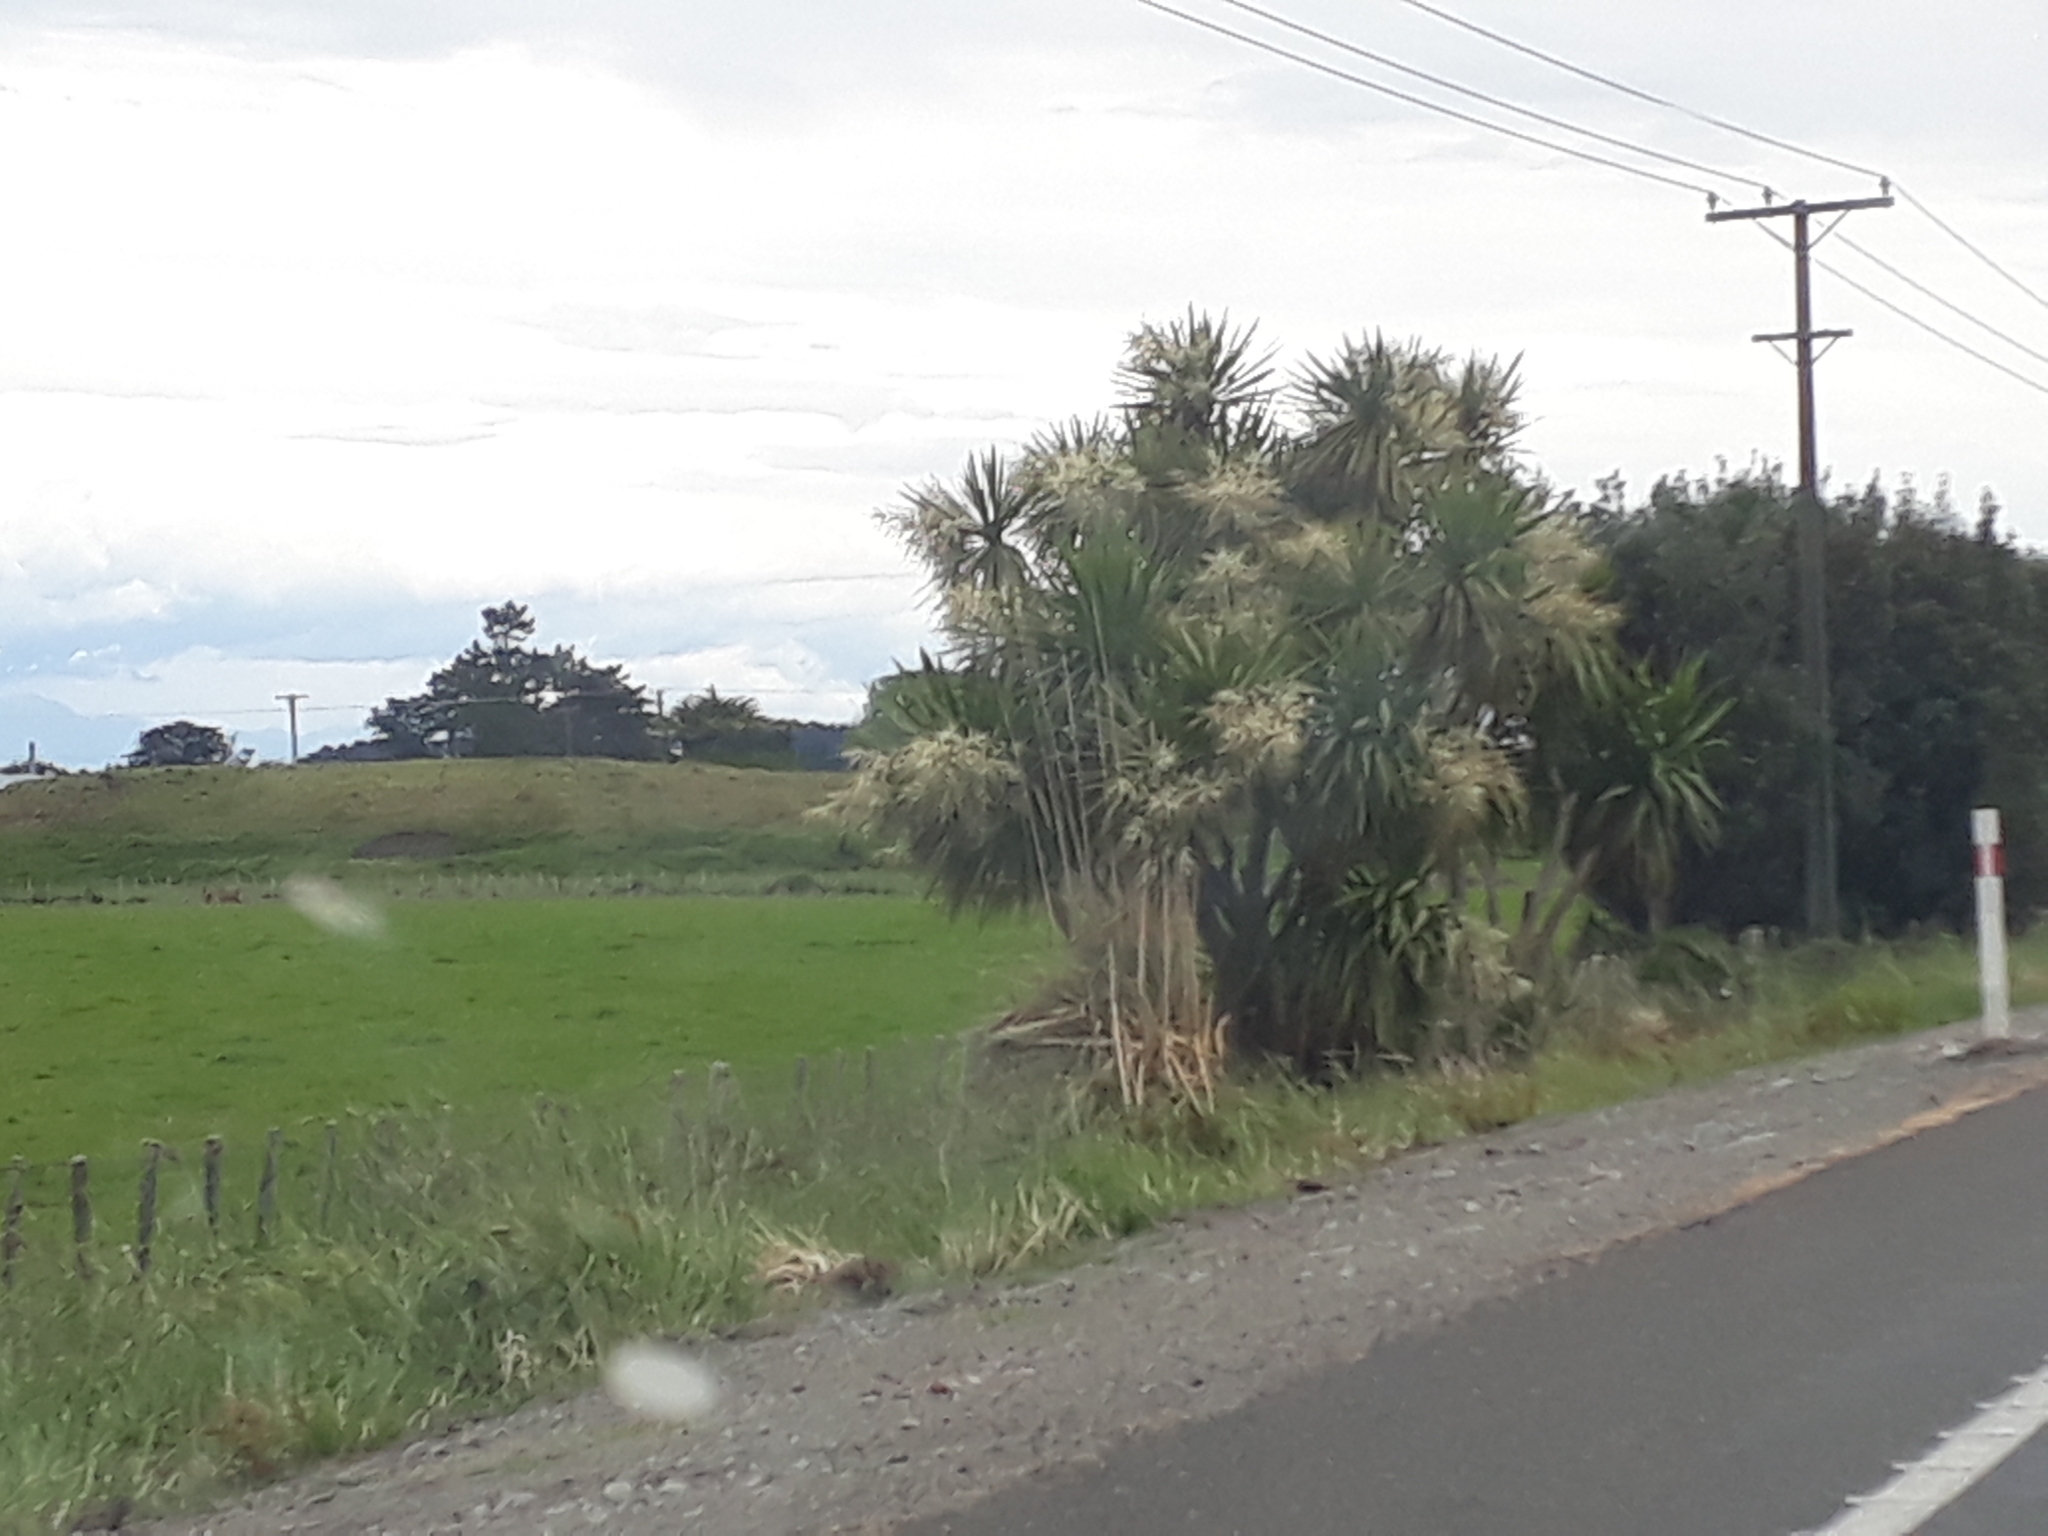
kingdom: Plantae
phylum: Tracheophyta
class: Liliopsida
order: Asparagales
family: Asparagaceae
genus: Cordyline
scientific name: Cordyline australis
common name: Cabbage-palm
